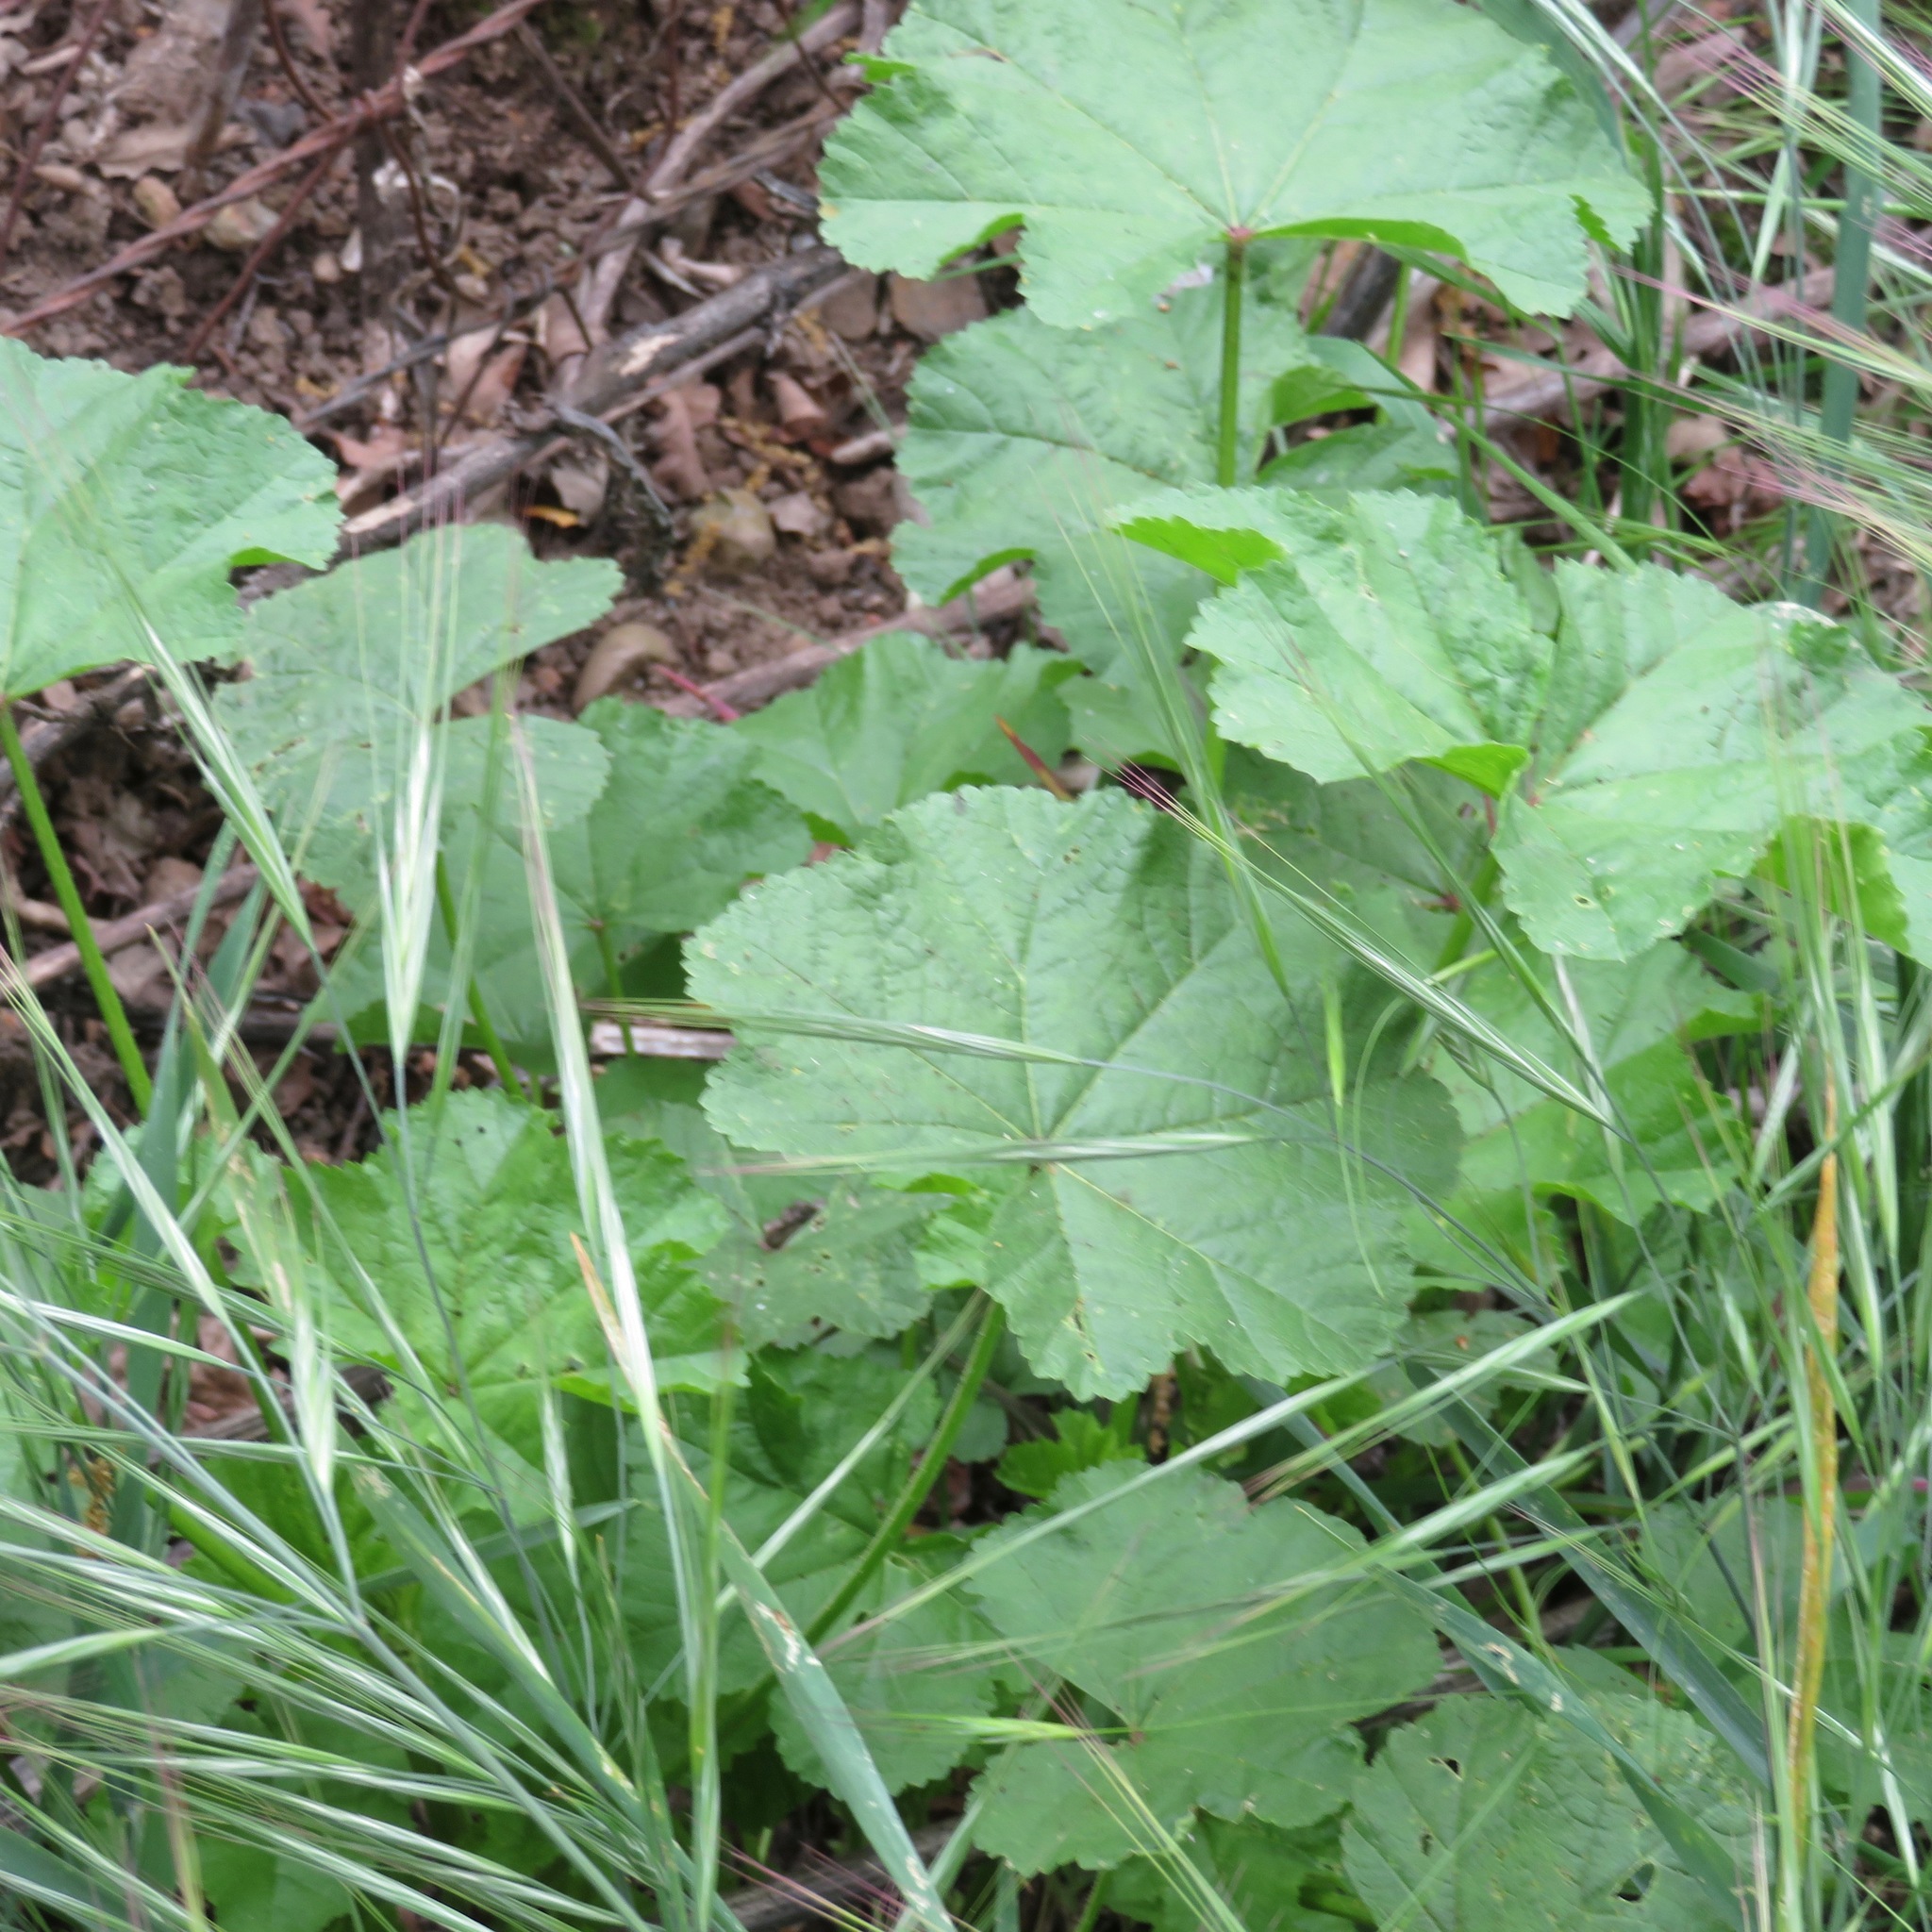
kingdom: Plantae
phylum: Tracheophyta
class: Magnoliopsida
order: Malvales
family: Malvaceae
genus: Malva
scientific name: Malva
